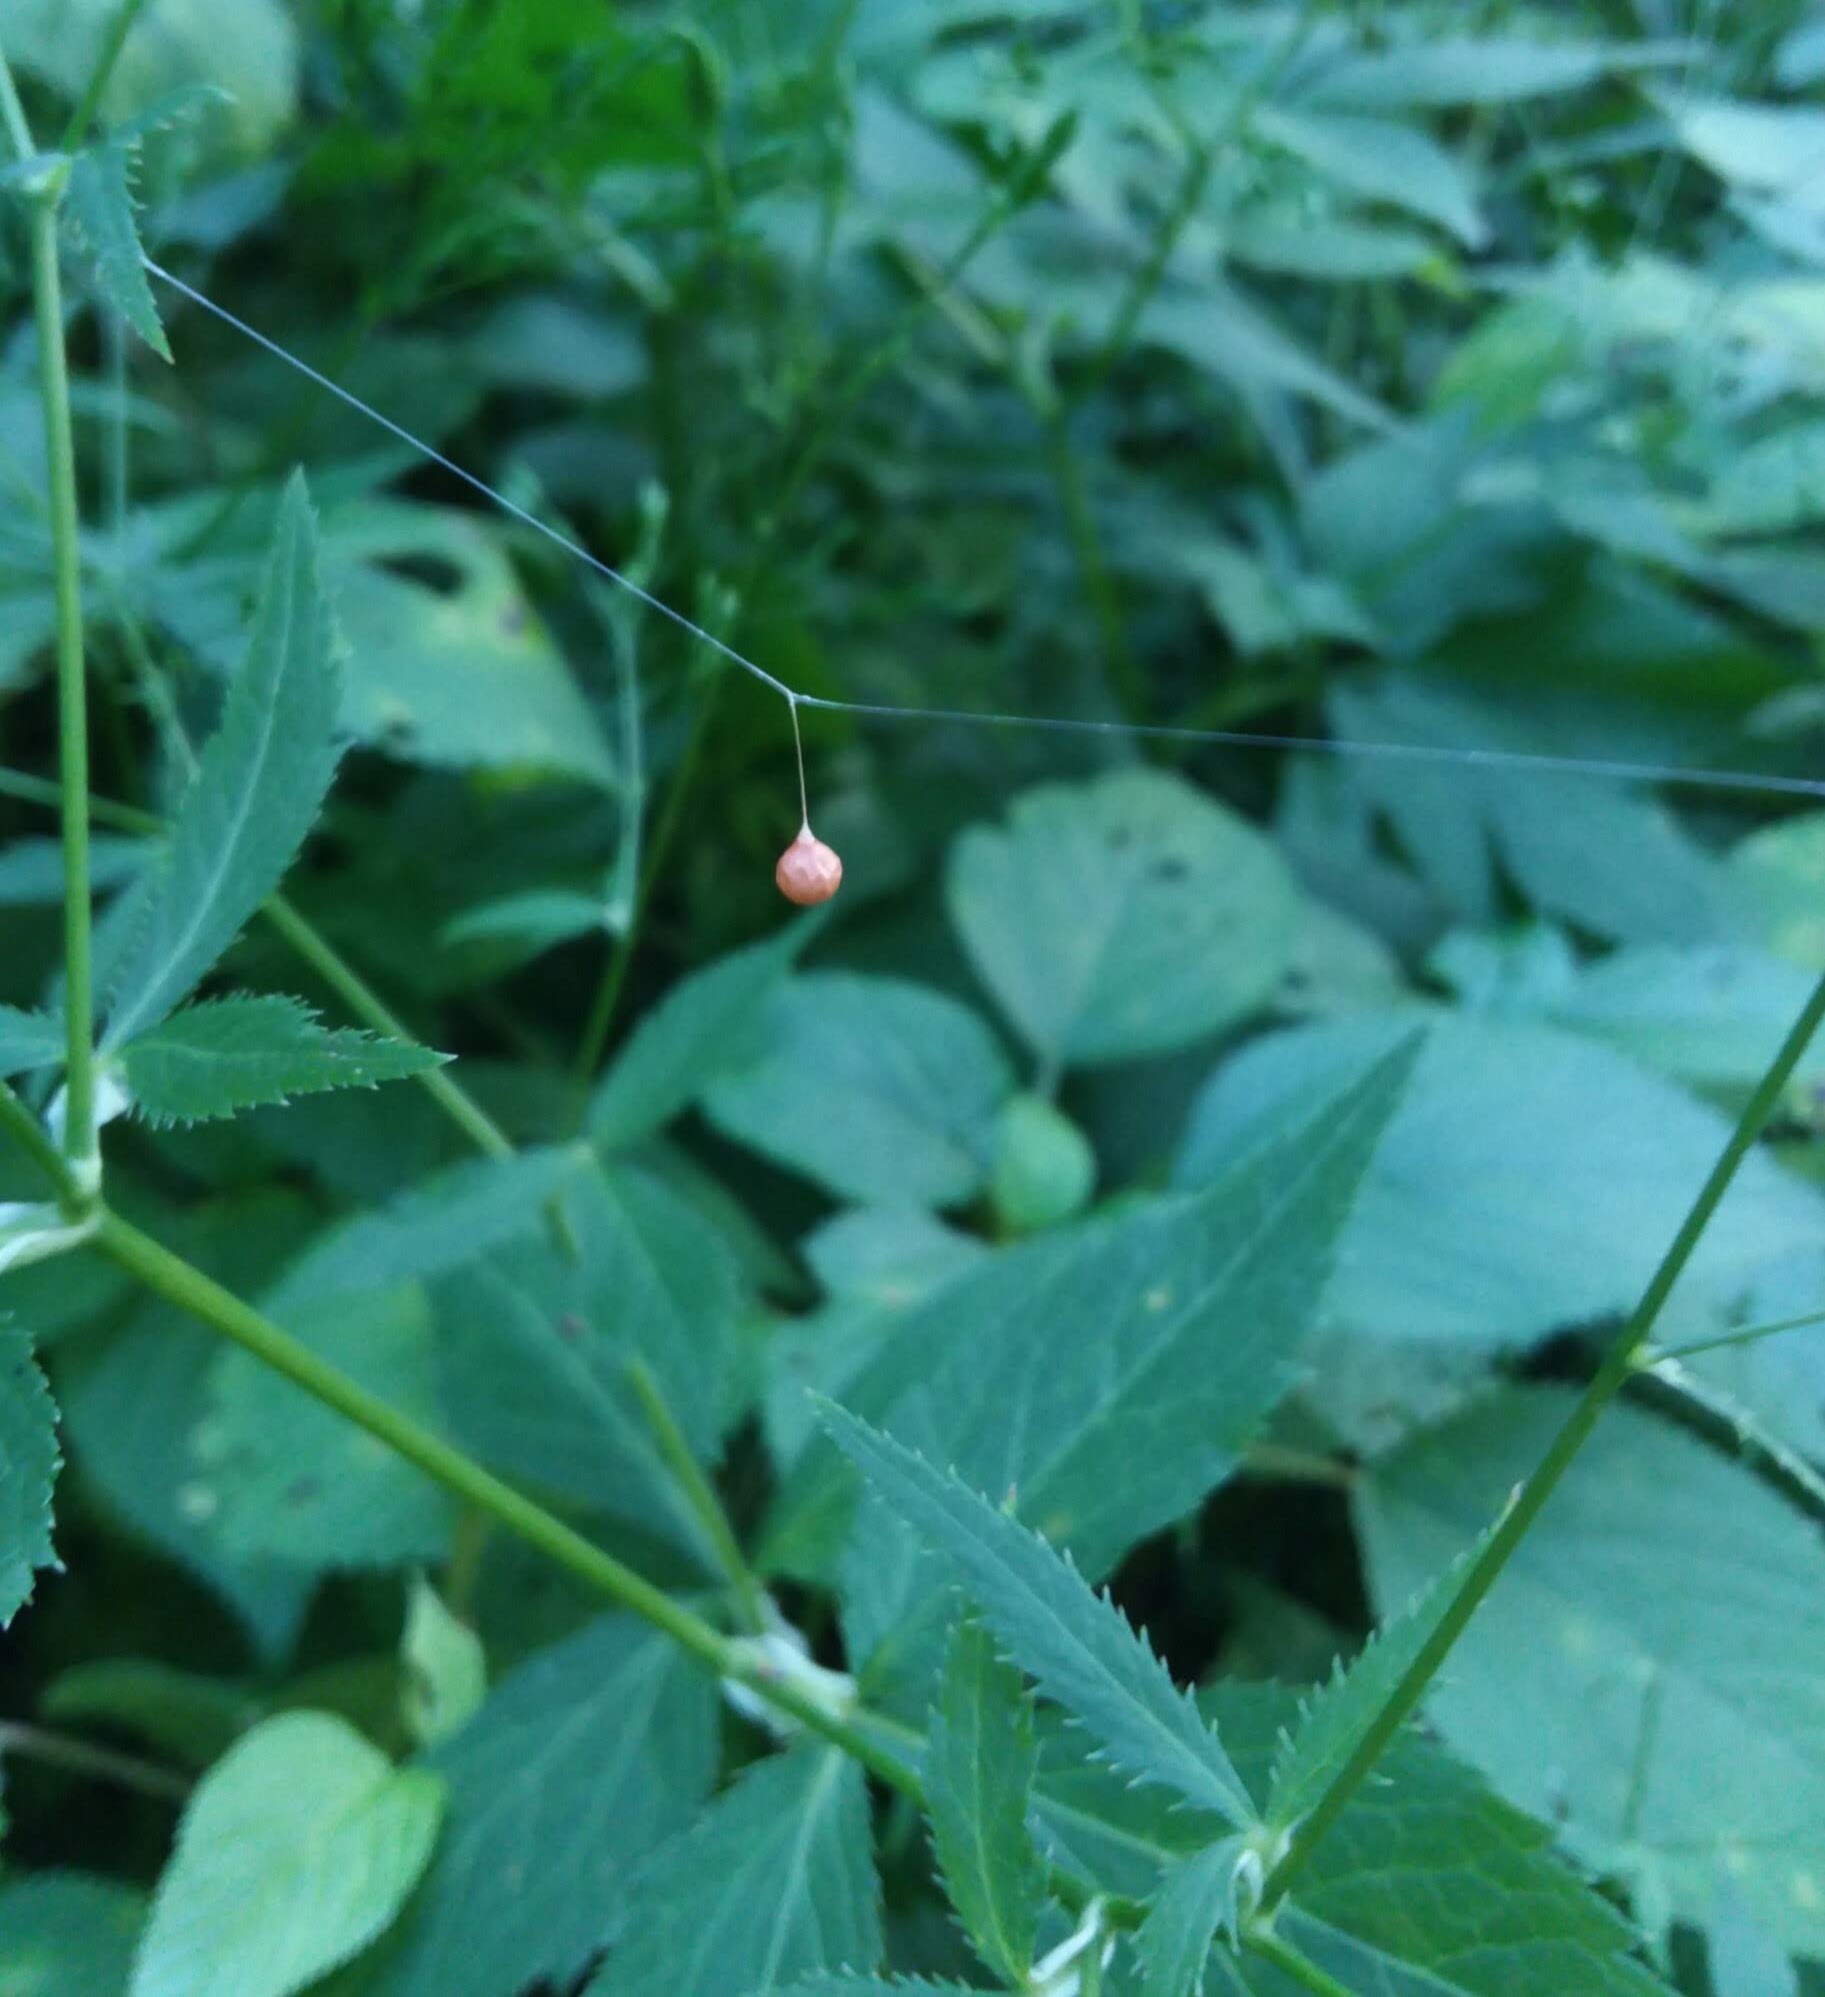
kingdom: Animalia
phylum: Arthropoda
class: Arachnida
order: Araneae
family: Theridiosomatidae
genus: Theridiosoma
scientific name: Theridiosoma gemmosum
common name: Ray spider
